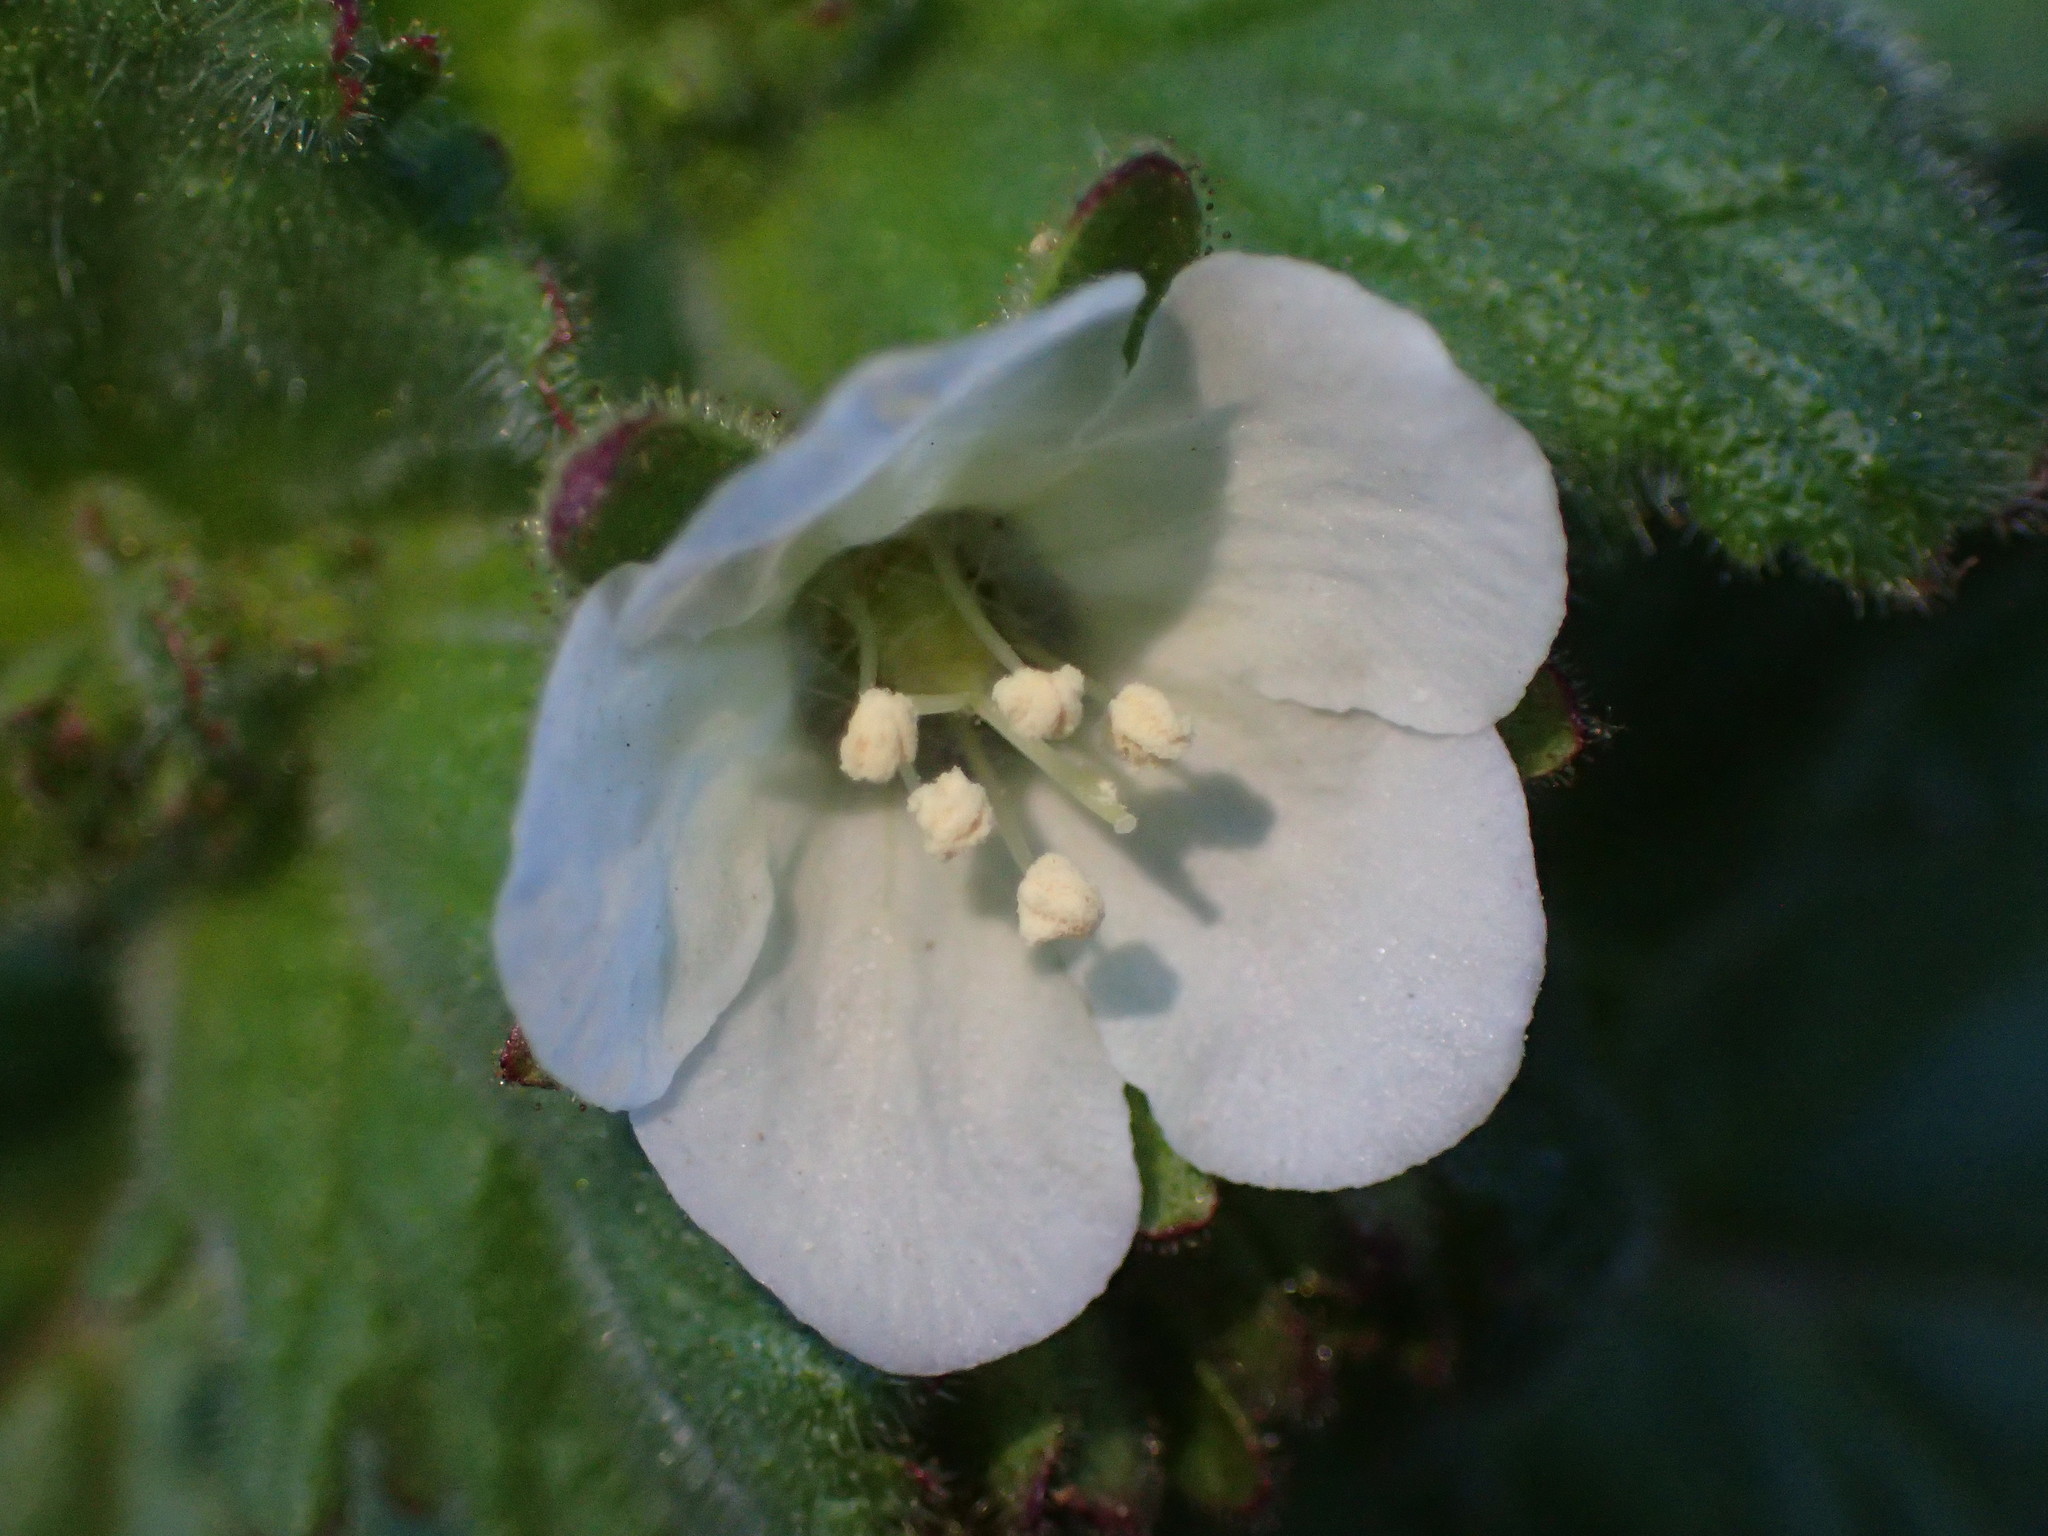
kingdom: Plantae
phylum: Tracheophyta
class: Magnoliopsida
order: Boraginales
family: Hydrophyllaceae
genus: Phacelia
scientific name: Phacelia viscida
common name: Sticky phacelia
